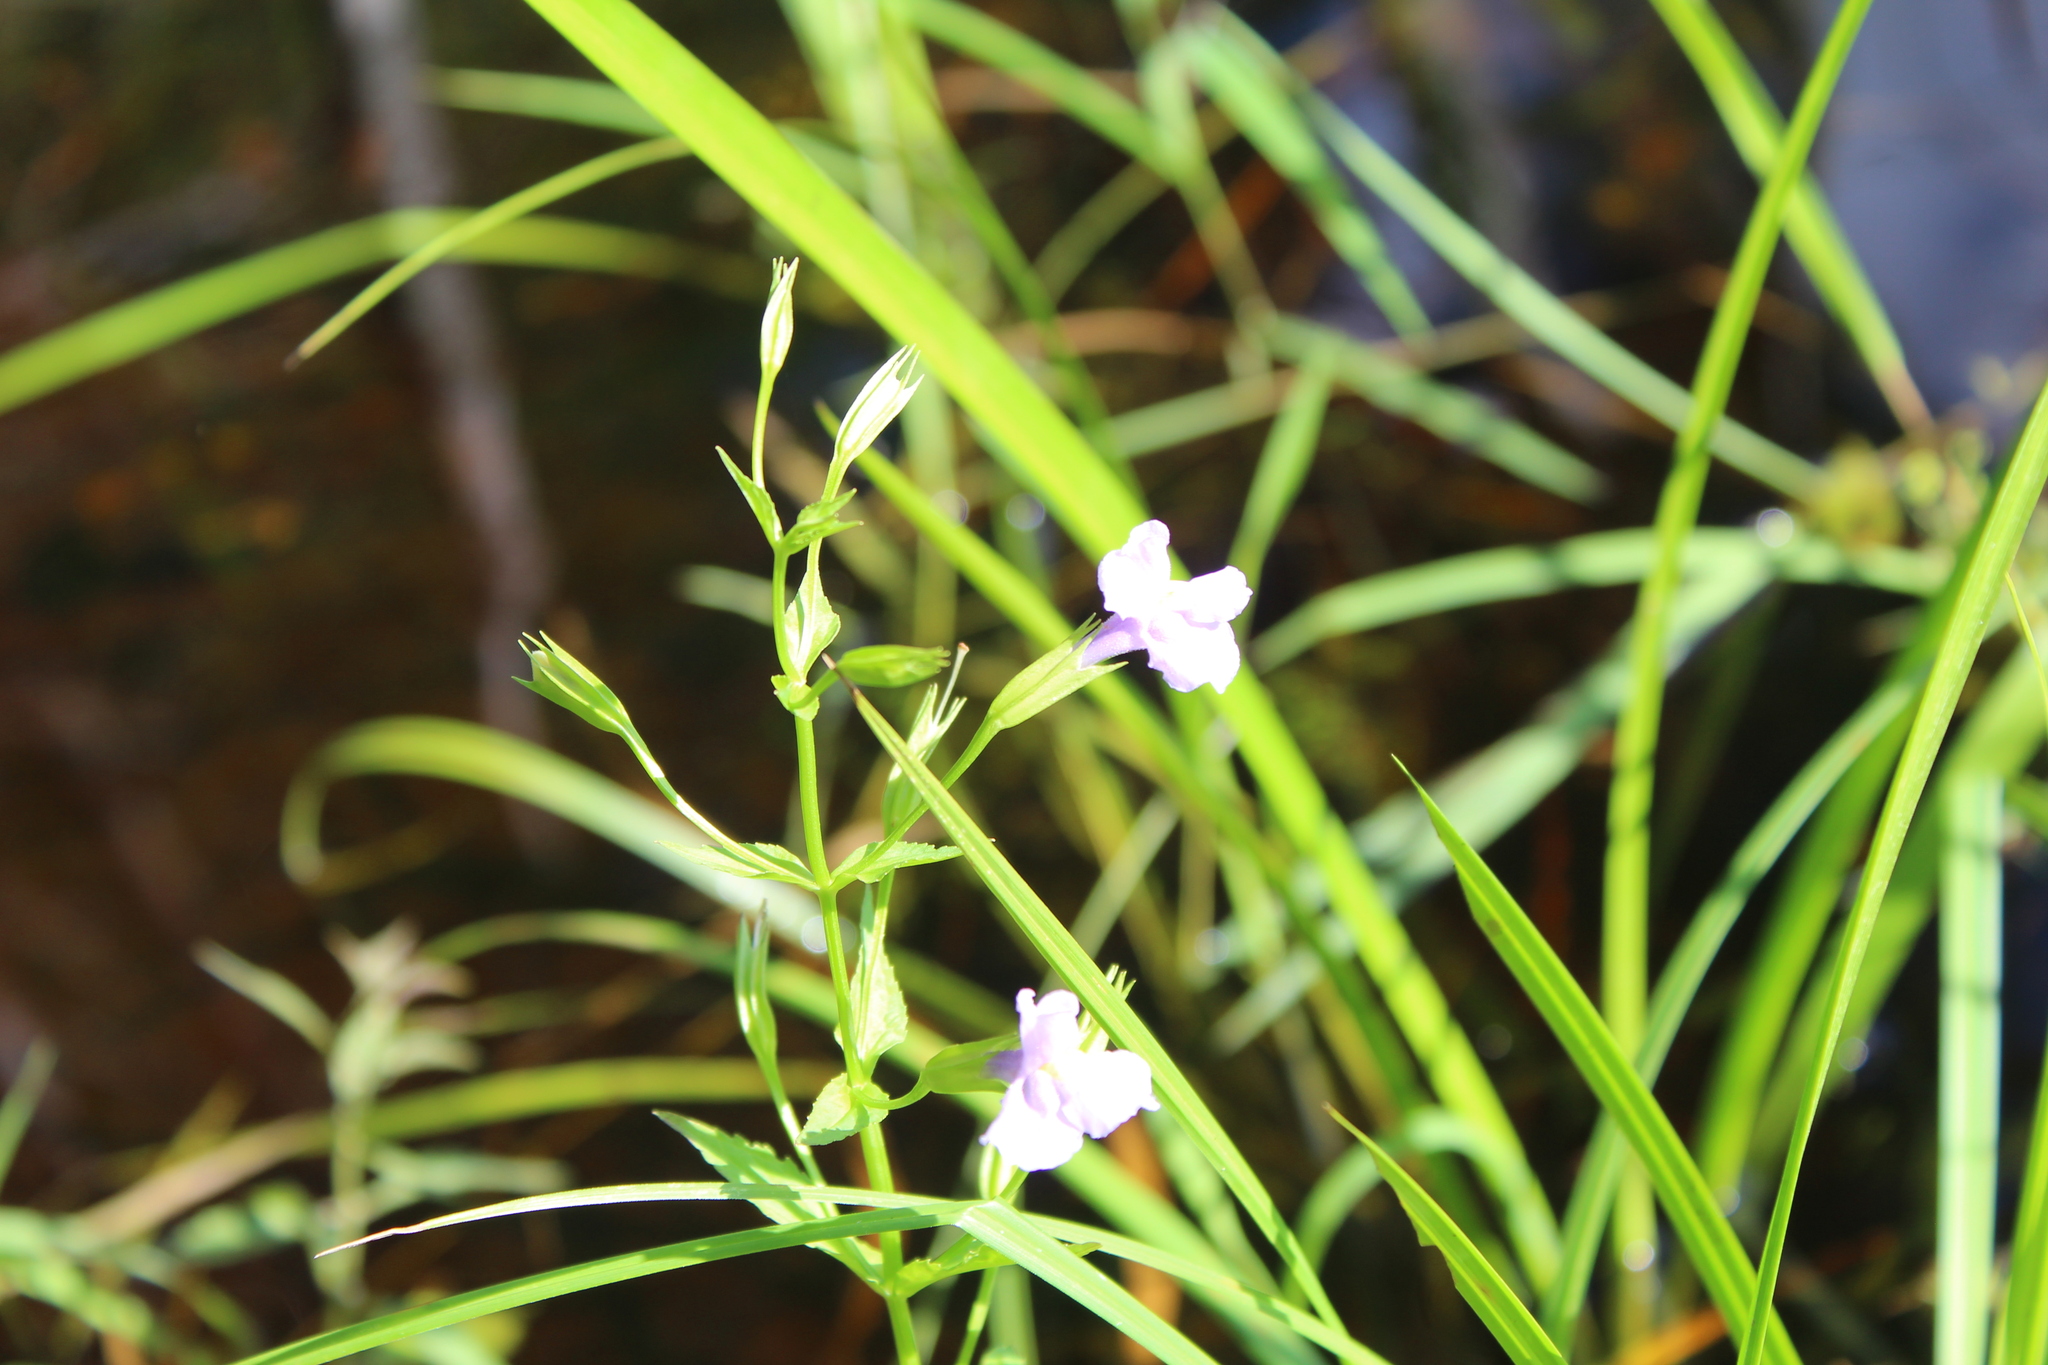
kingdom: Plantae
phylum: Tracheophyta
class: Magnoliopsida
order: Lamiales
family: Phrymaceae
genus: Mimulus
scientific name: Mimulus ringens
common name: Allegheny monkeyflower
